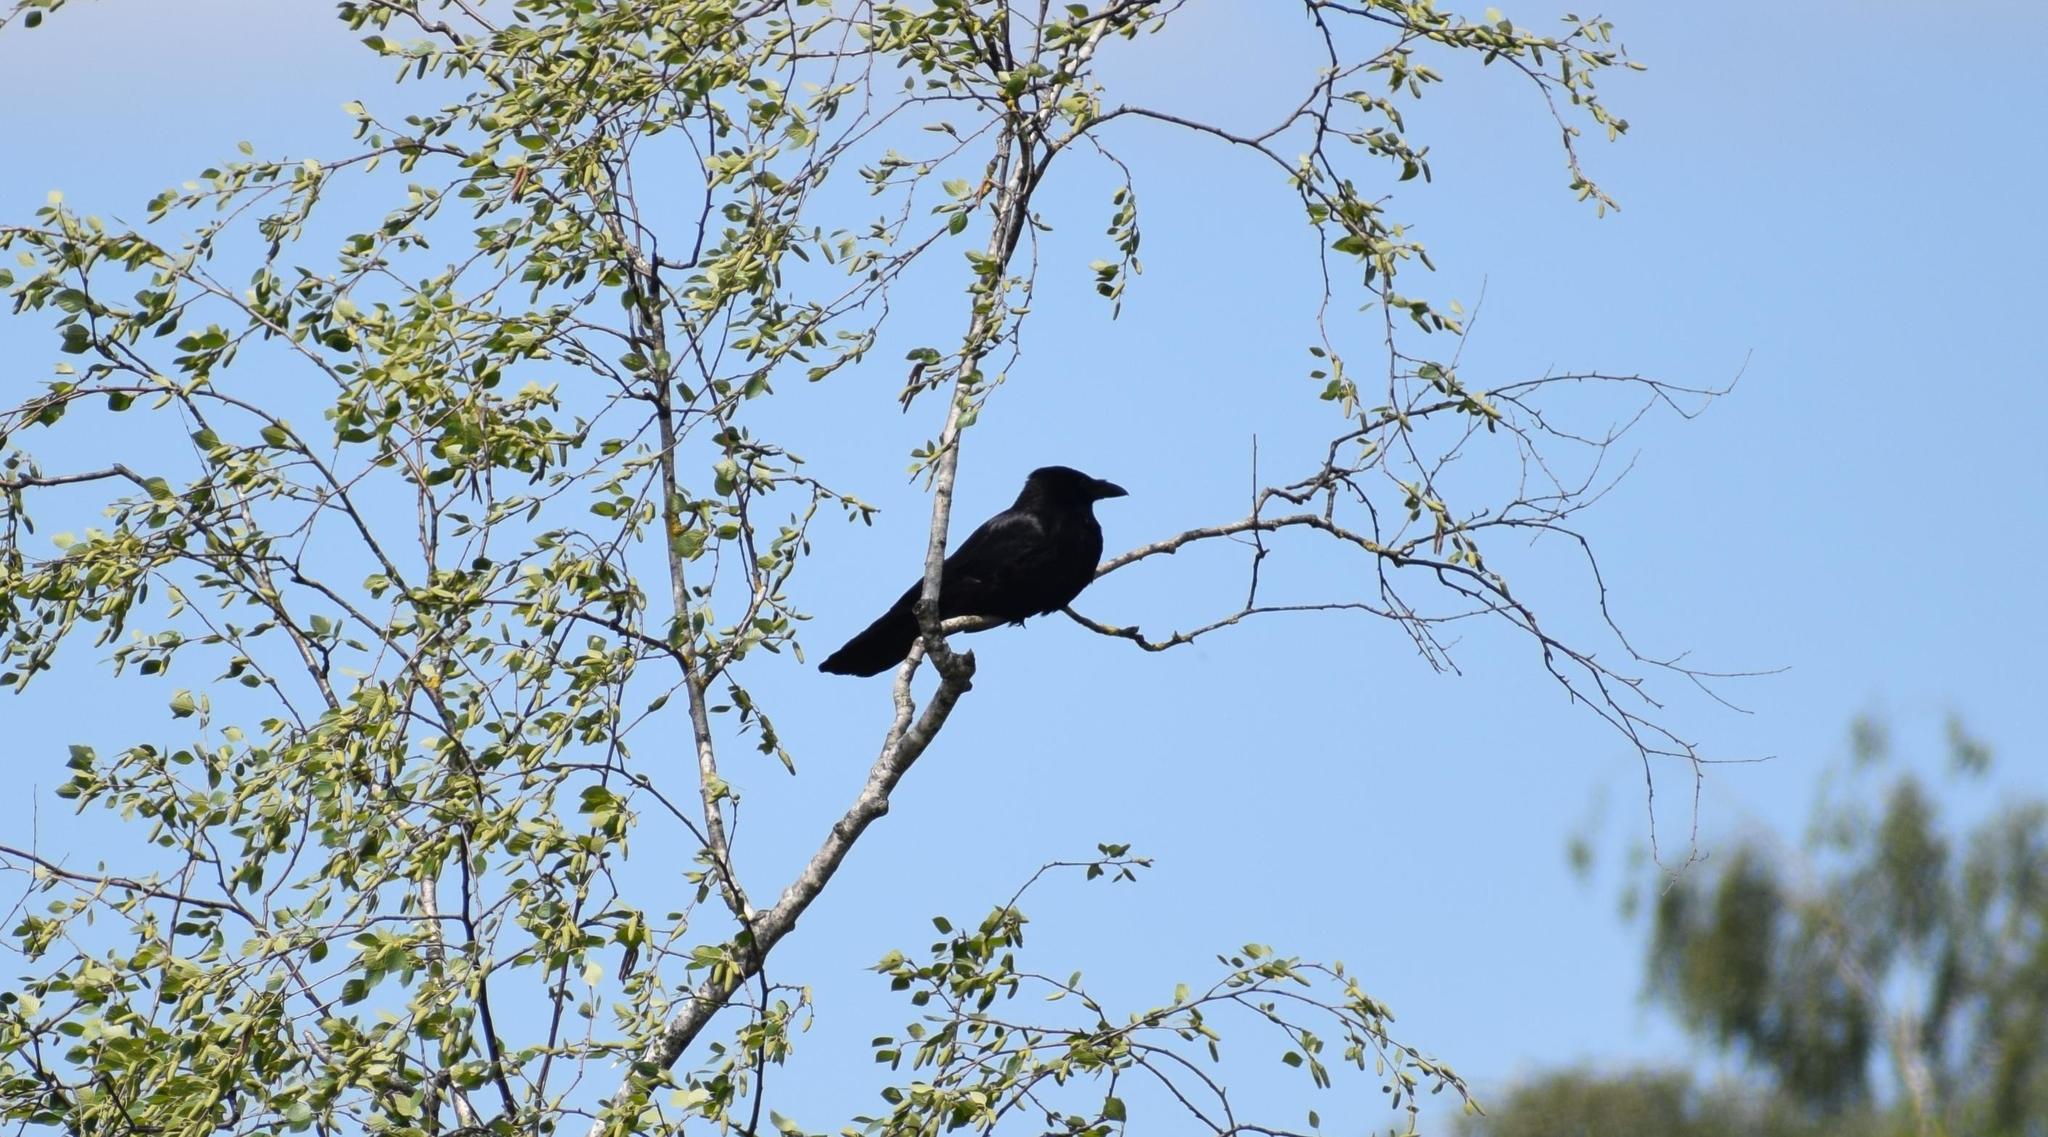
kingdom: Animalia
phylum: Chordata
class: Aves
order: Passeriformes
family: Corvidae
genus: Corvus
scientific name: Corvus corone
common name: Carrion crow
